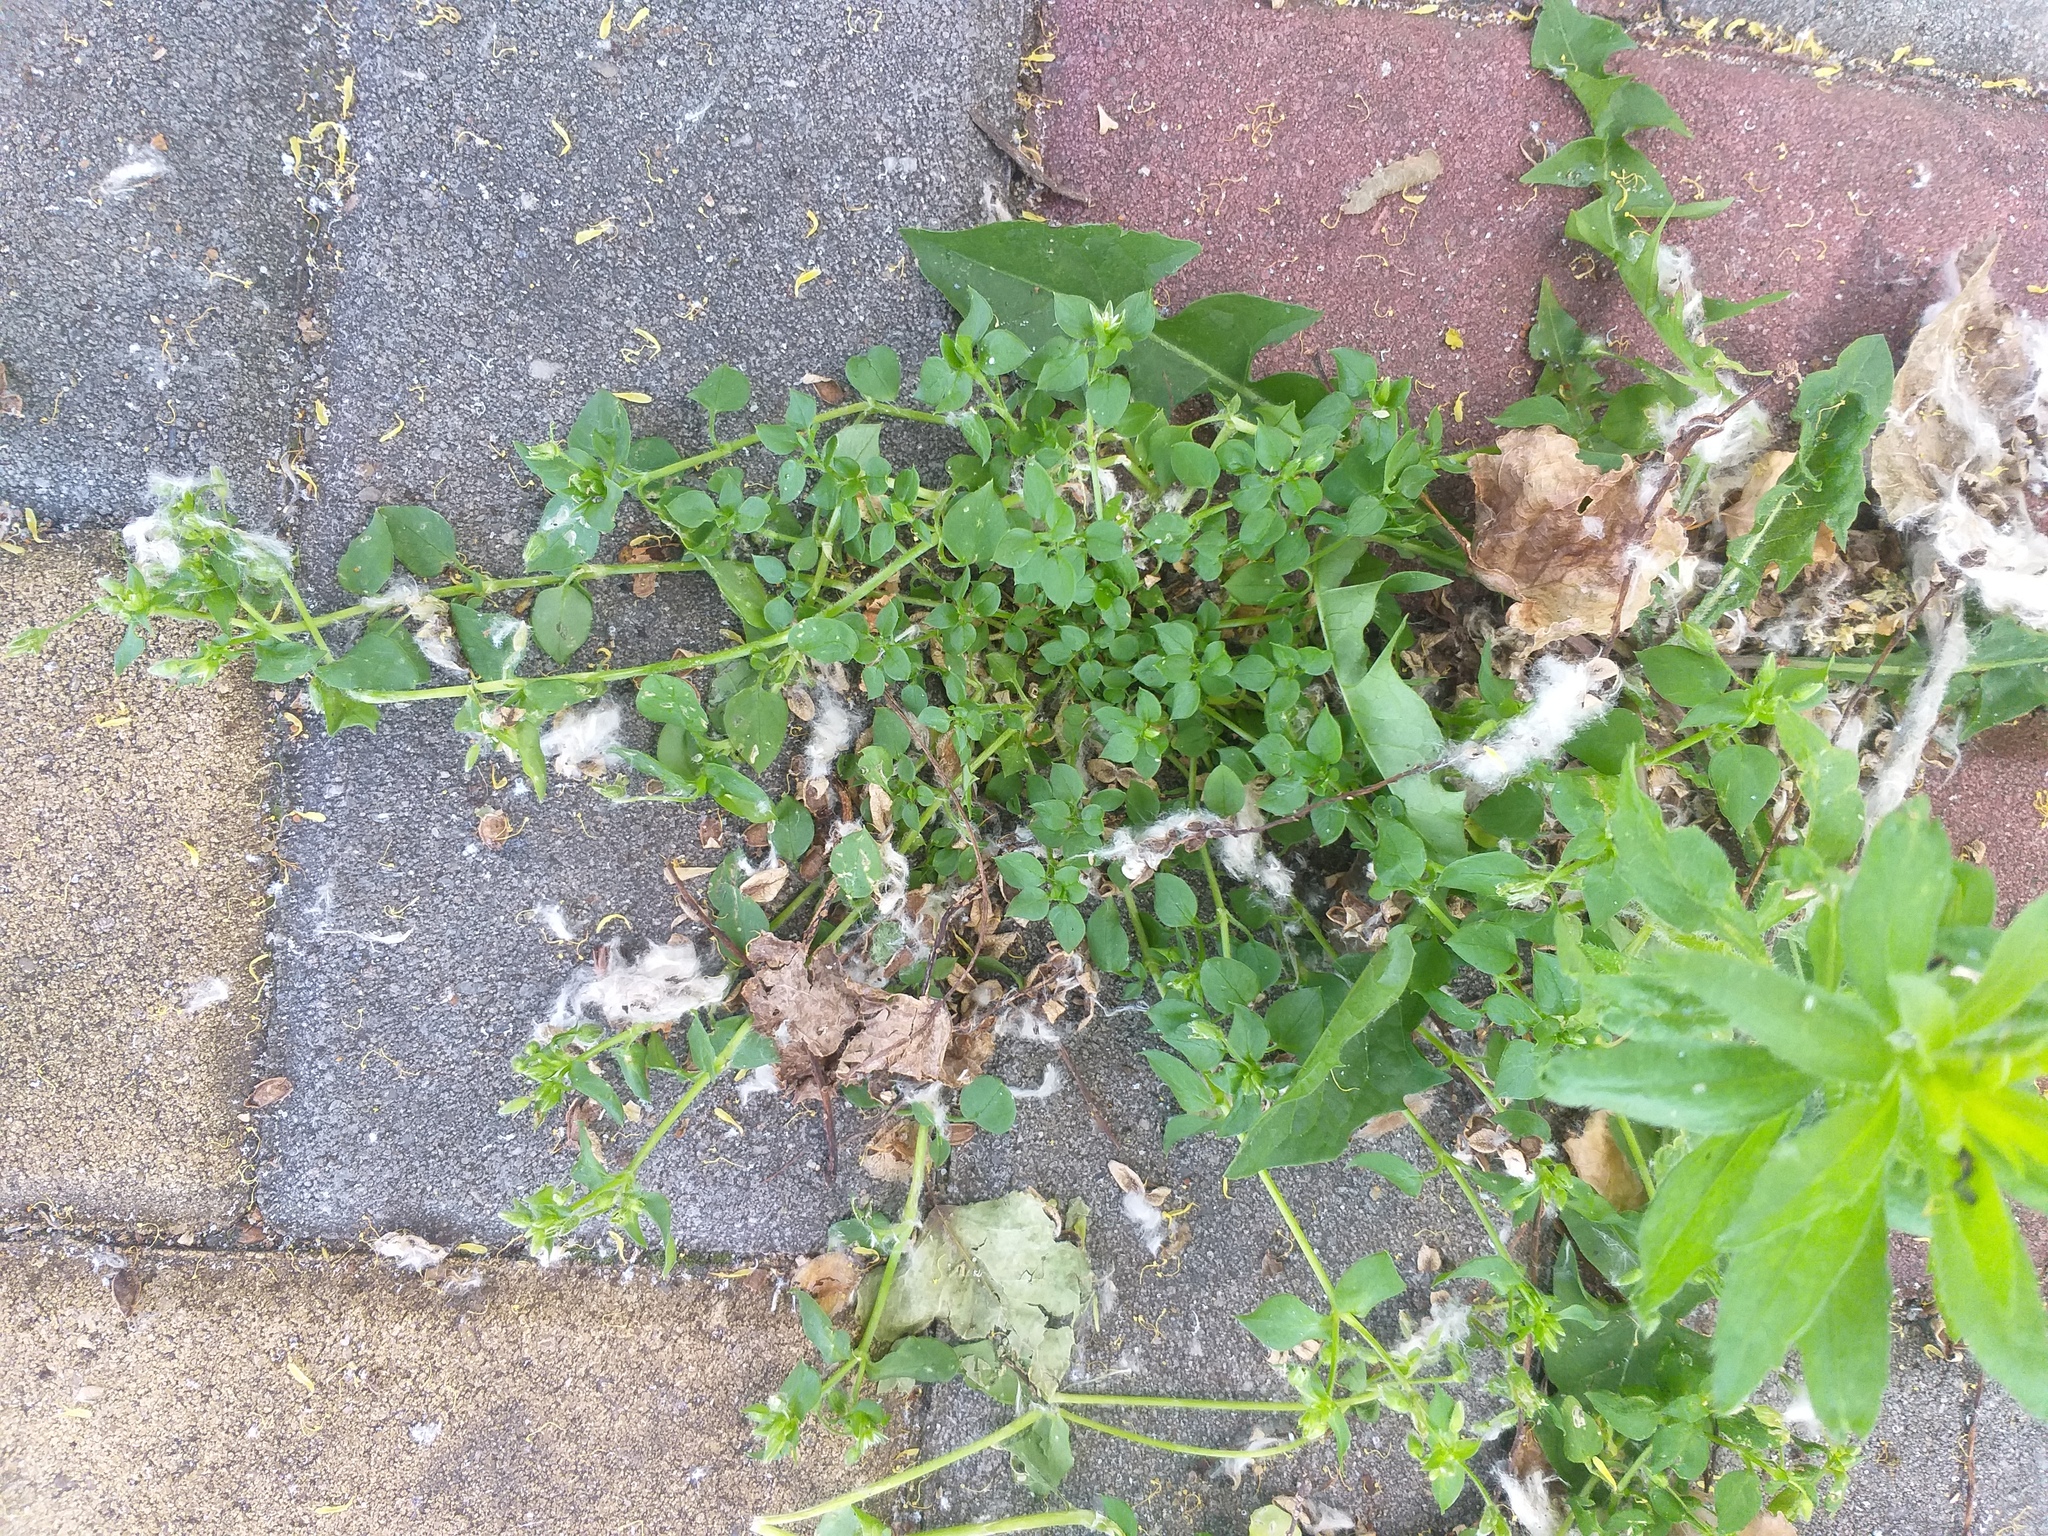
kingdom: Plantae
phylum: Tracheophyta
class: Magnoliopsida
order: Caryophyllales
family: Caryophyllaceae
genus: Stellaria
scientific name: Stellaria media
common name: Common chickweed
